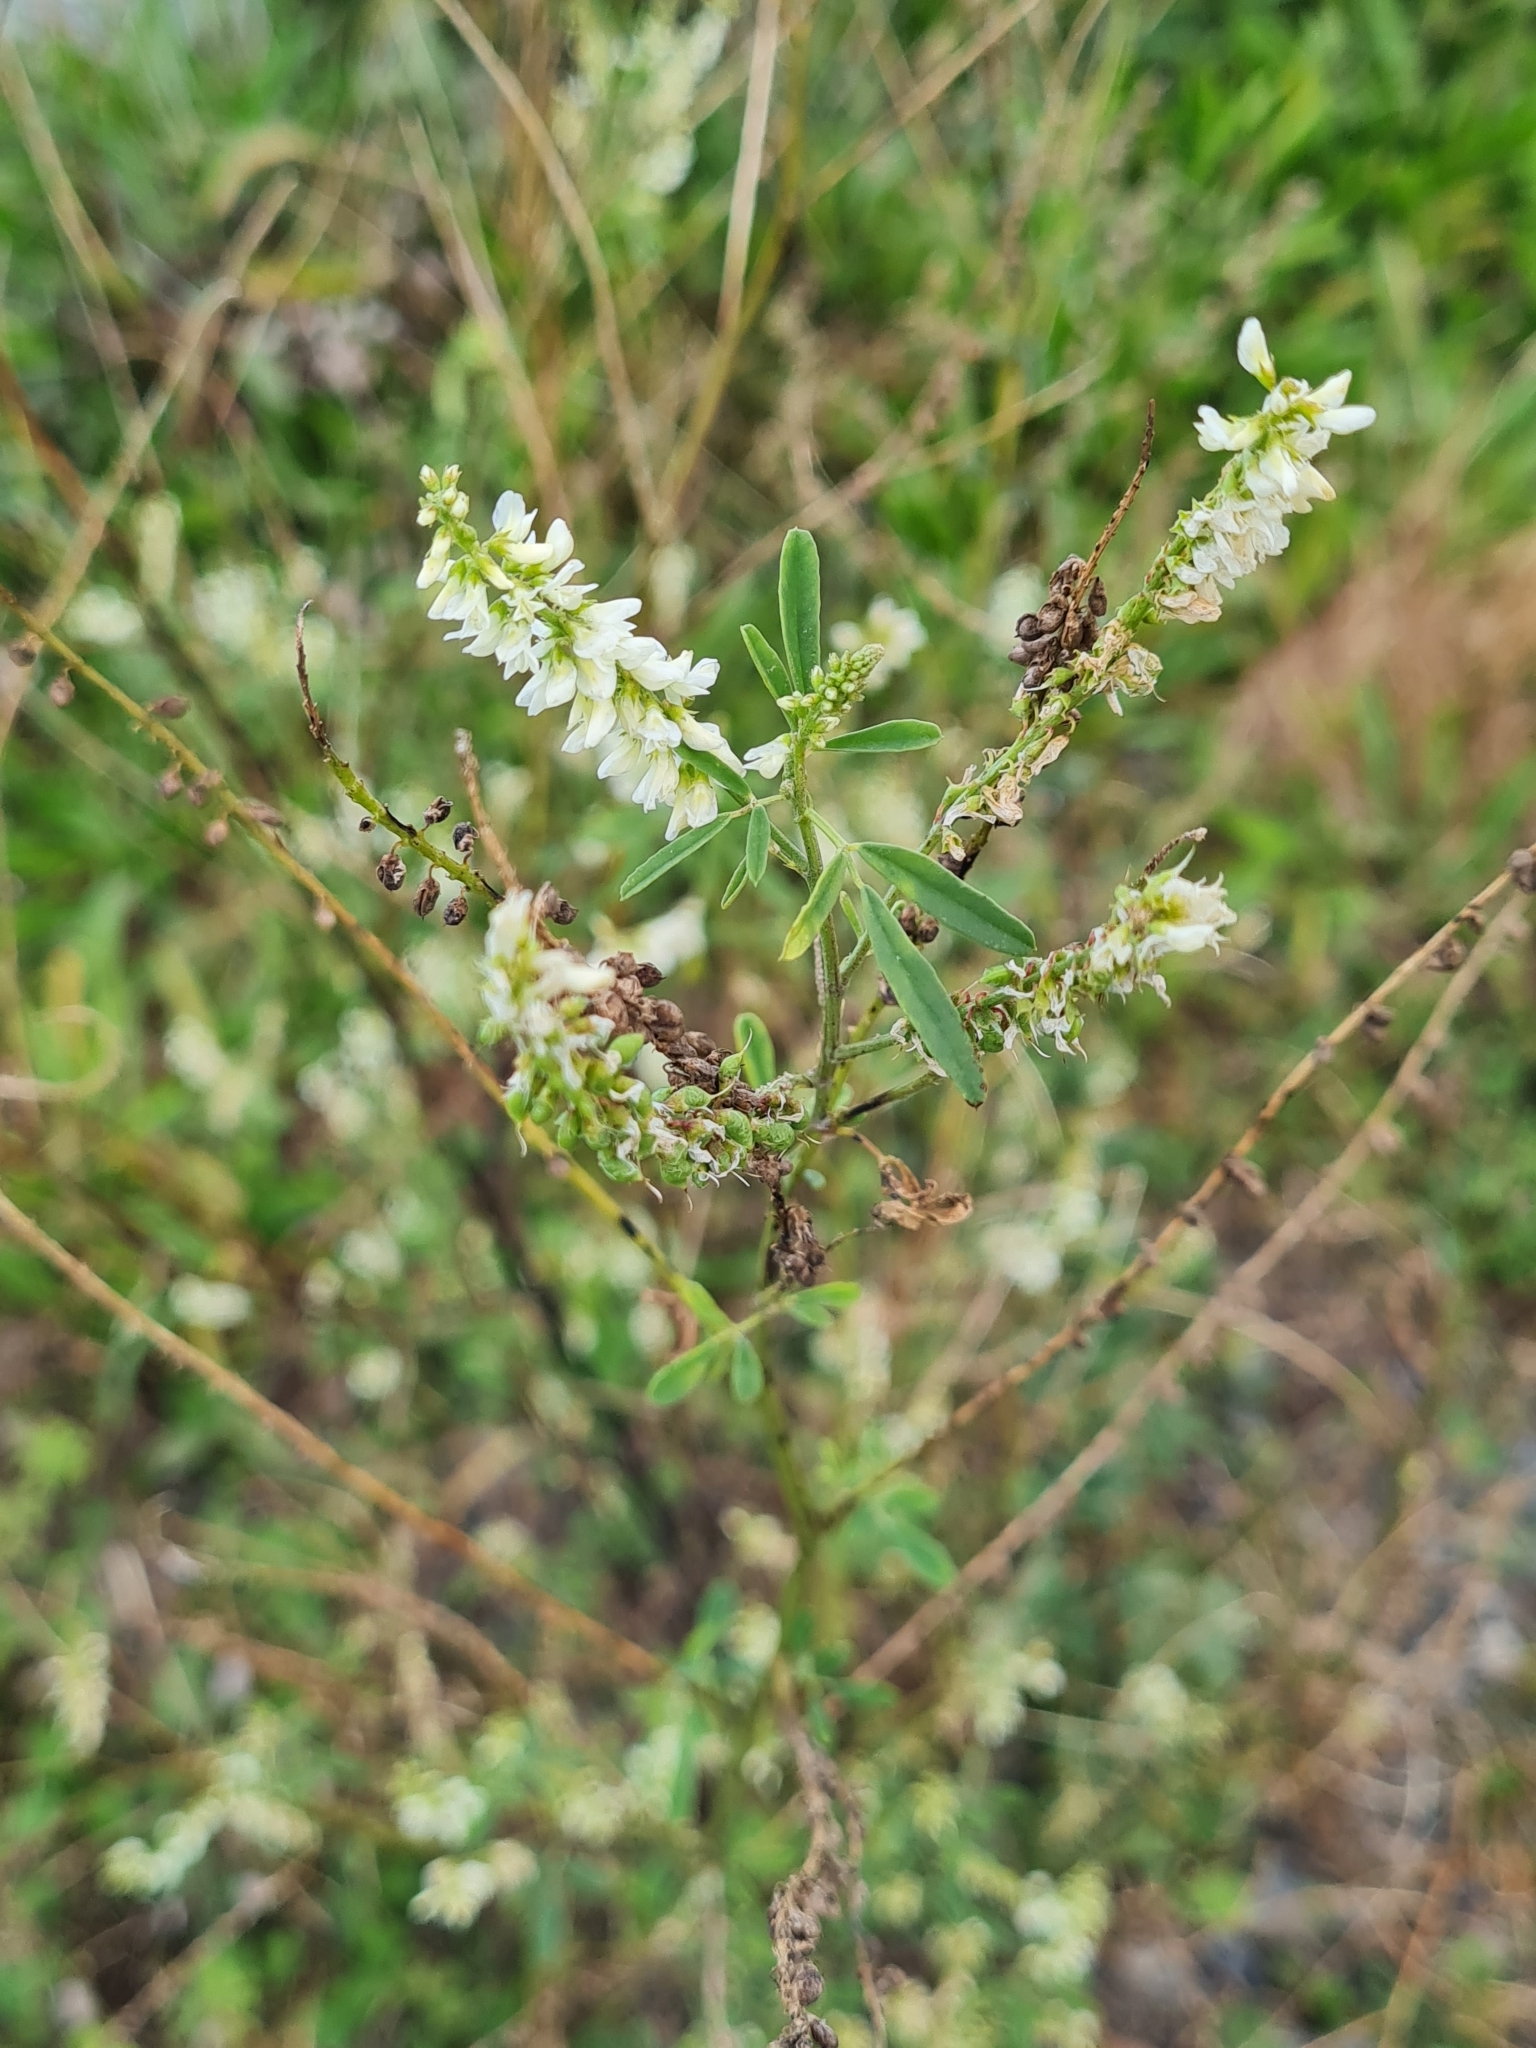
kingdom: Plantae
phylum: Tracheophyta
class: Magnoliopsida
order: Fabales
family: Fabaceae
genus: Melilotus
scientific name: Melilotus albus
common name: White melilot
